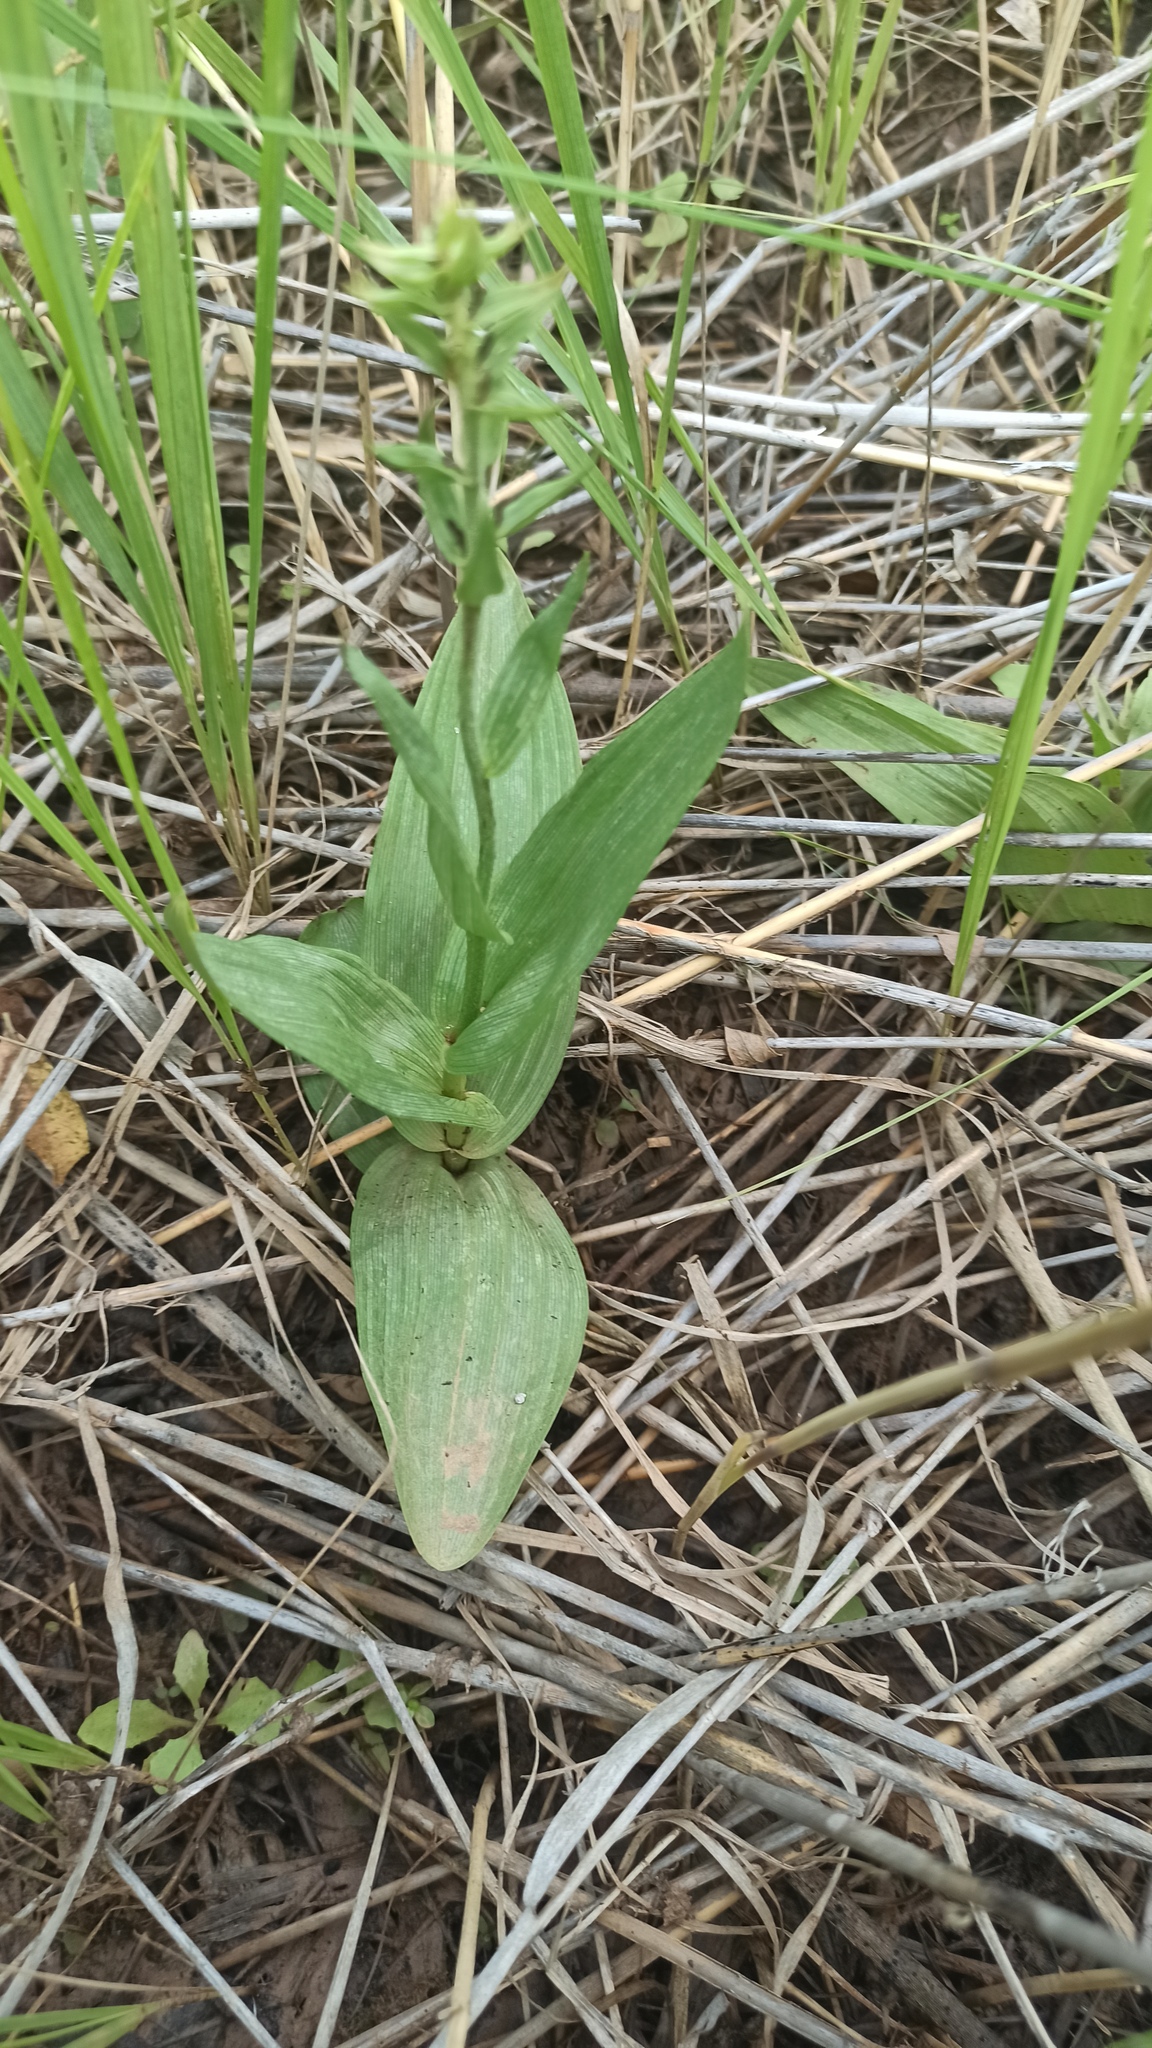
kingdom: Plantae
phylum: Tracheophyta
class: Liliopsida
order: Asparagales
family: Orchidaceae
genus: Epipactis
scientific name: Epipactis palustris
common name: Marsh helleborine
